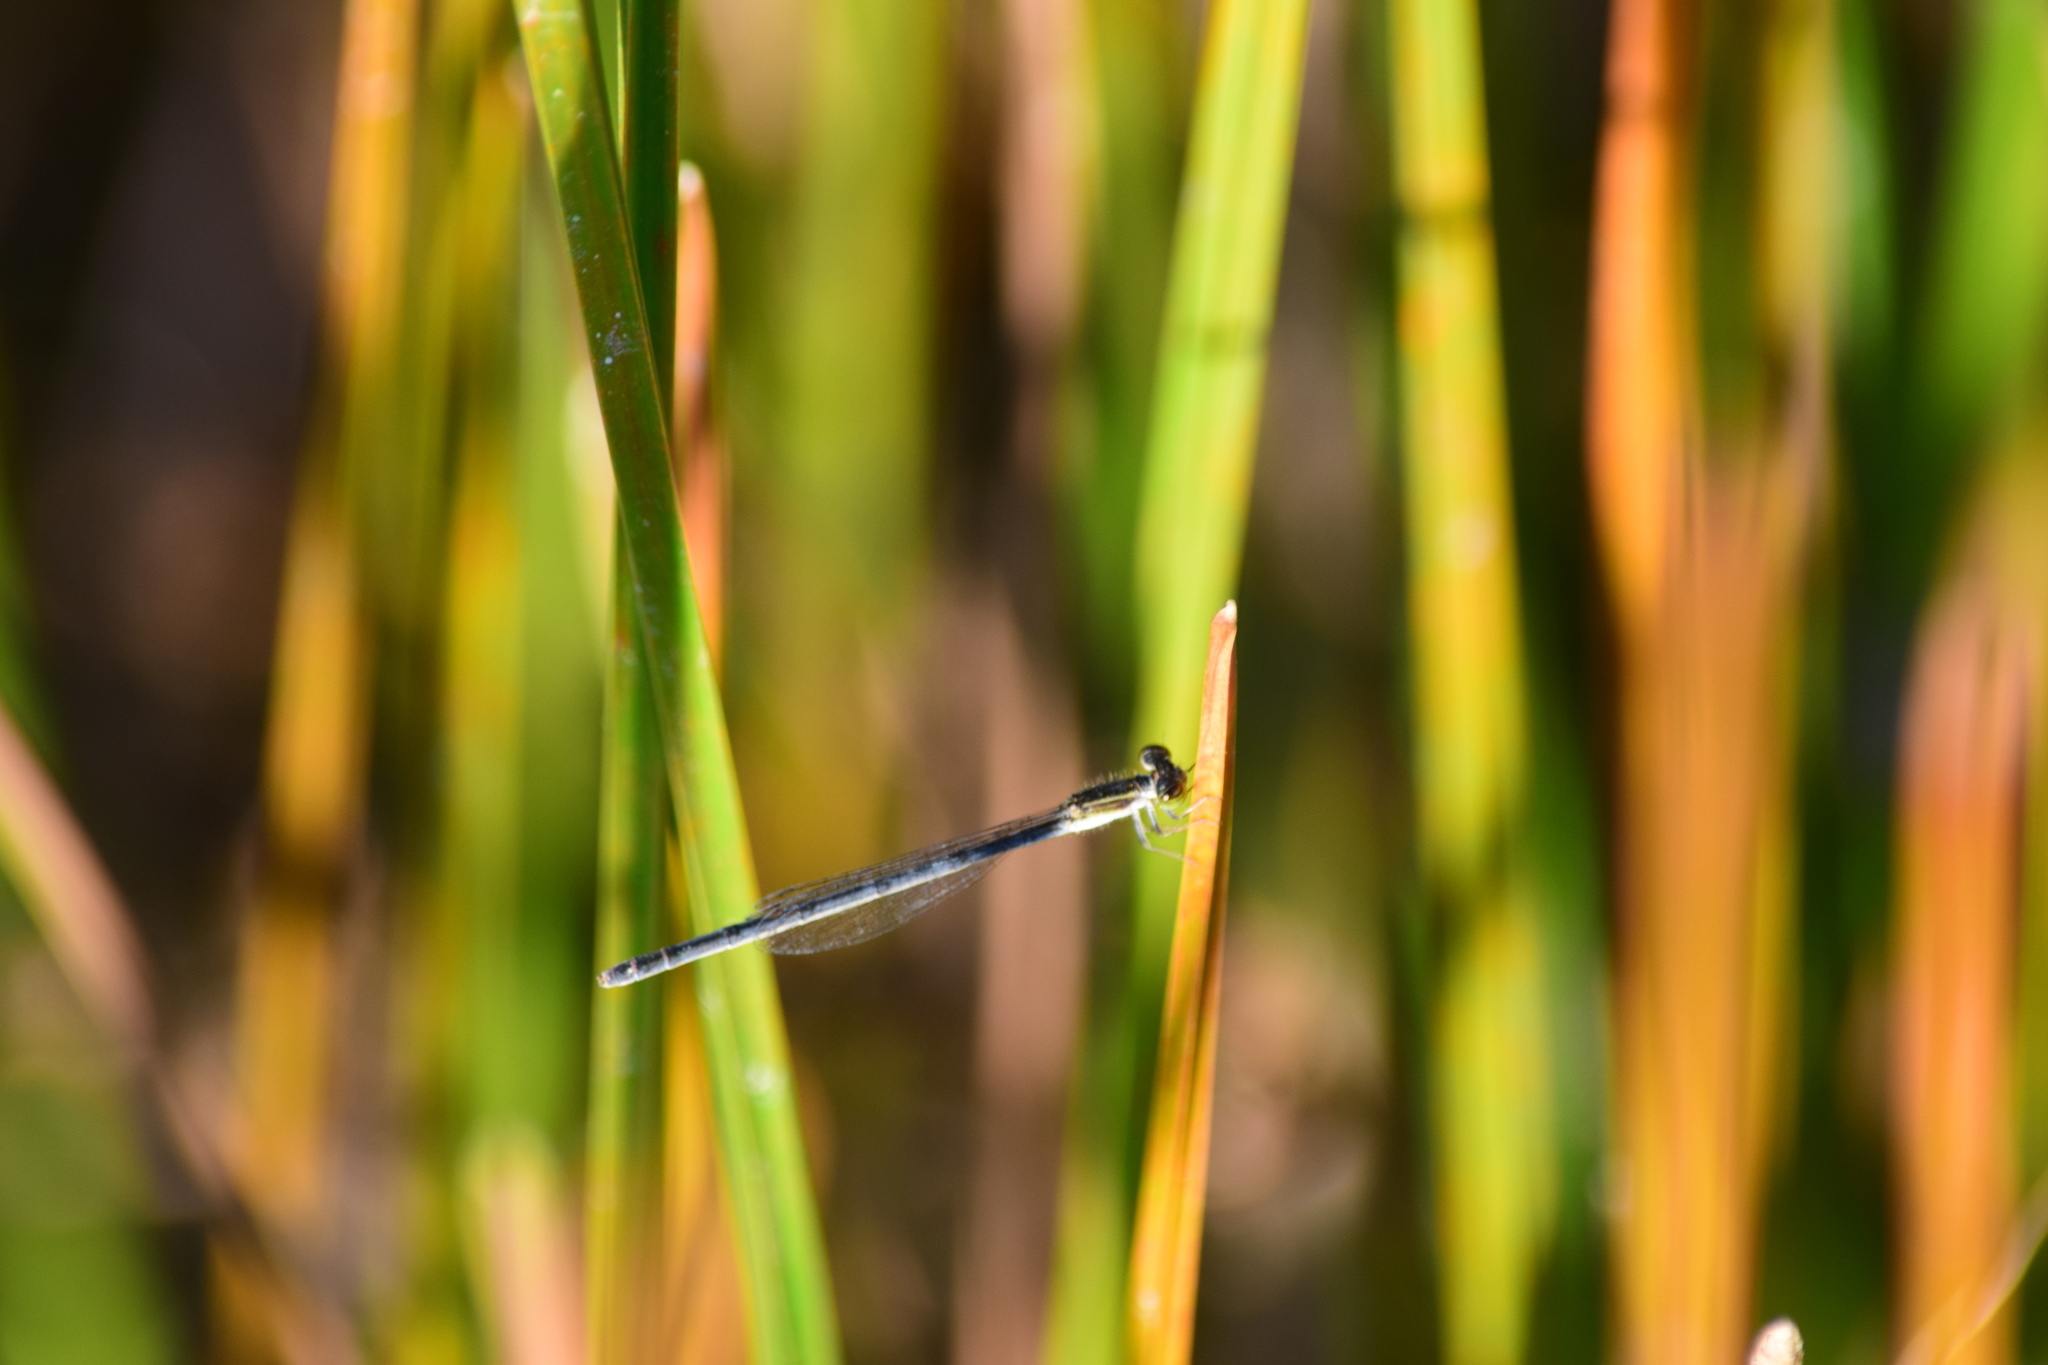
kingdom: Animalia
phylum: Arthropoda
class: Insecta
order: Odonata
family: Coenagrionidae
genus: Ischnura
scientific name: Ischnura hastata
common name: Citrine forktail
